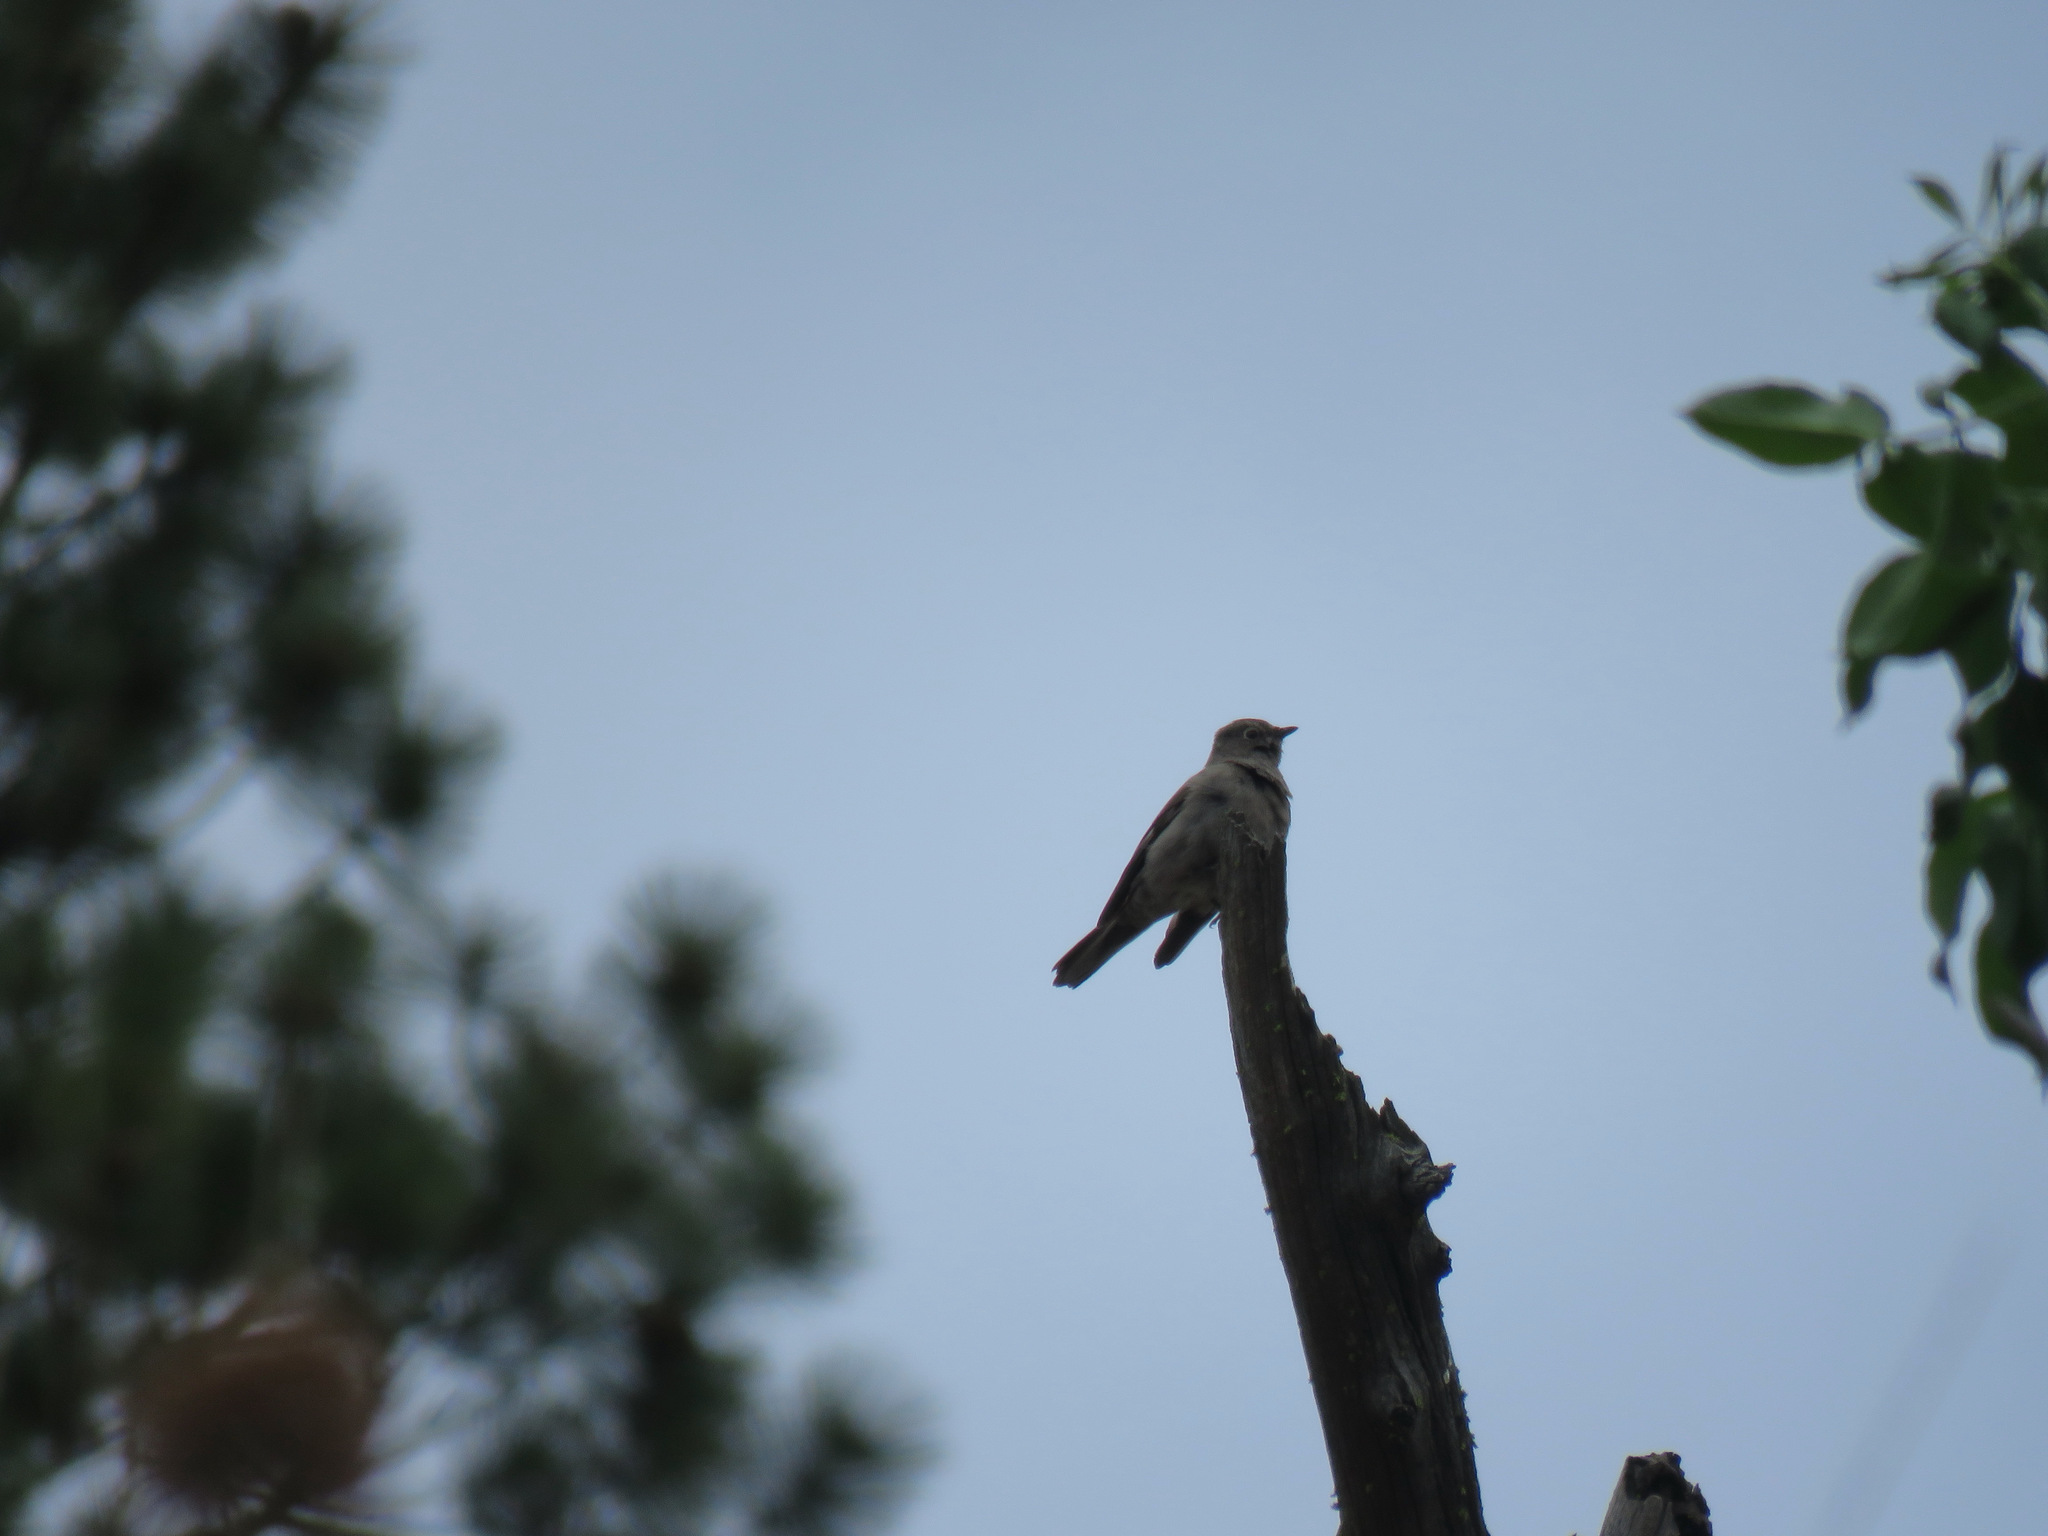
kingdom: Animalia
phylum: Chordata
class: Aves
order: Passeriformes
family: Turdidae
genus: Myadestes
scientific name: Myadestes townsendi
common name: Townsend's solitaire
